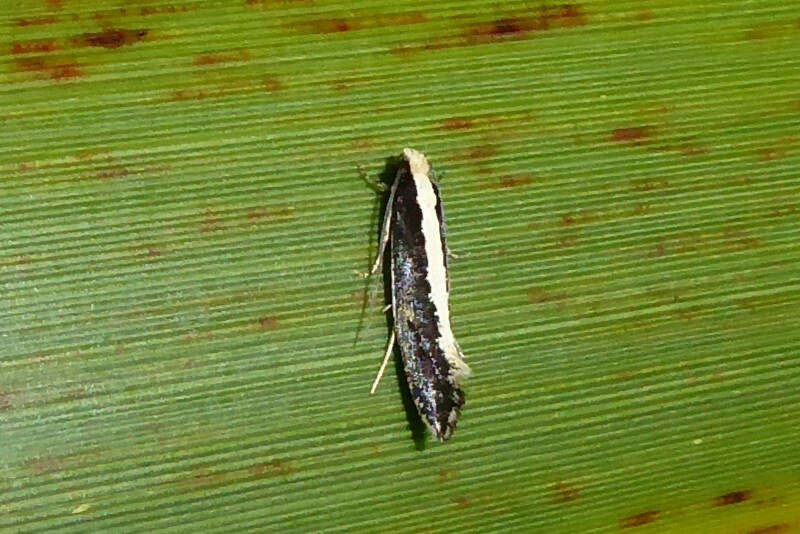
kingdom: Animalia
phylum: Arthropoda
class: Insecta
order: Lepidoptera
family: Tineidae
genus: Monopis
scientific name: Monopis ethelella
